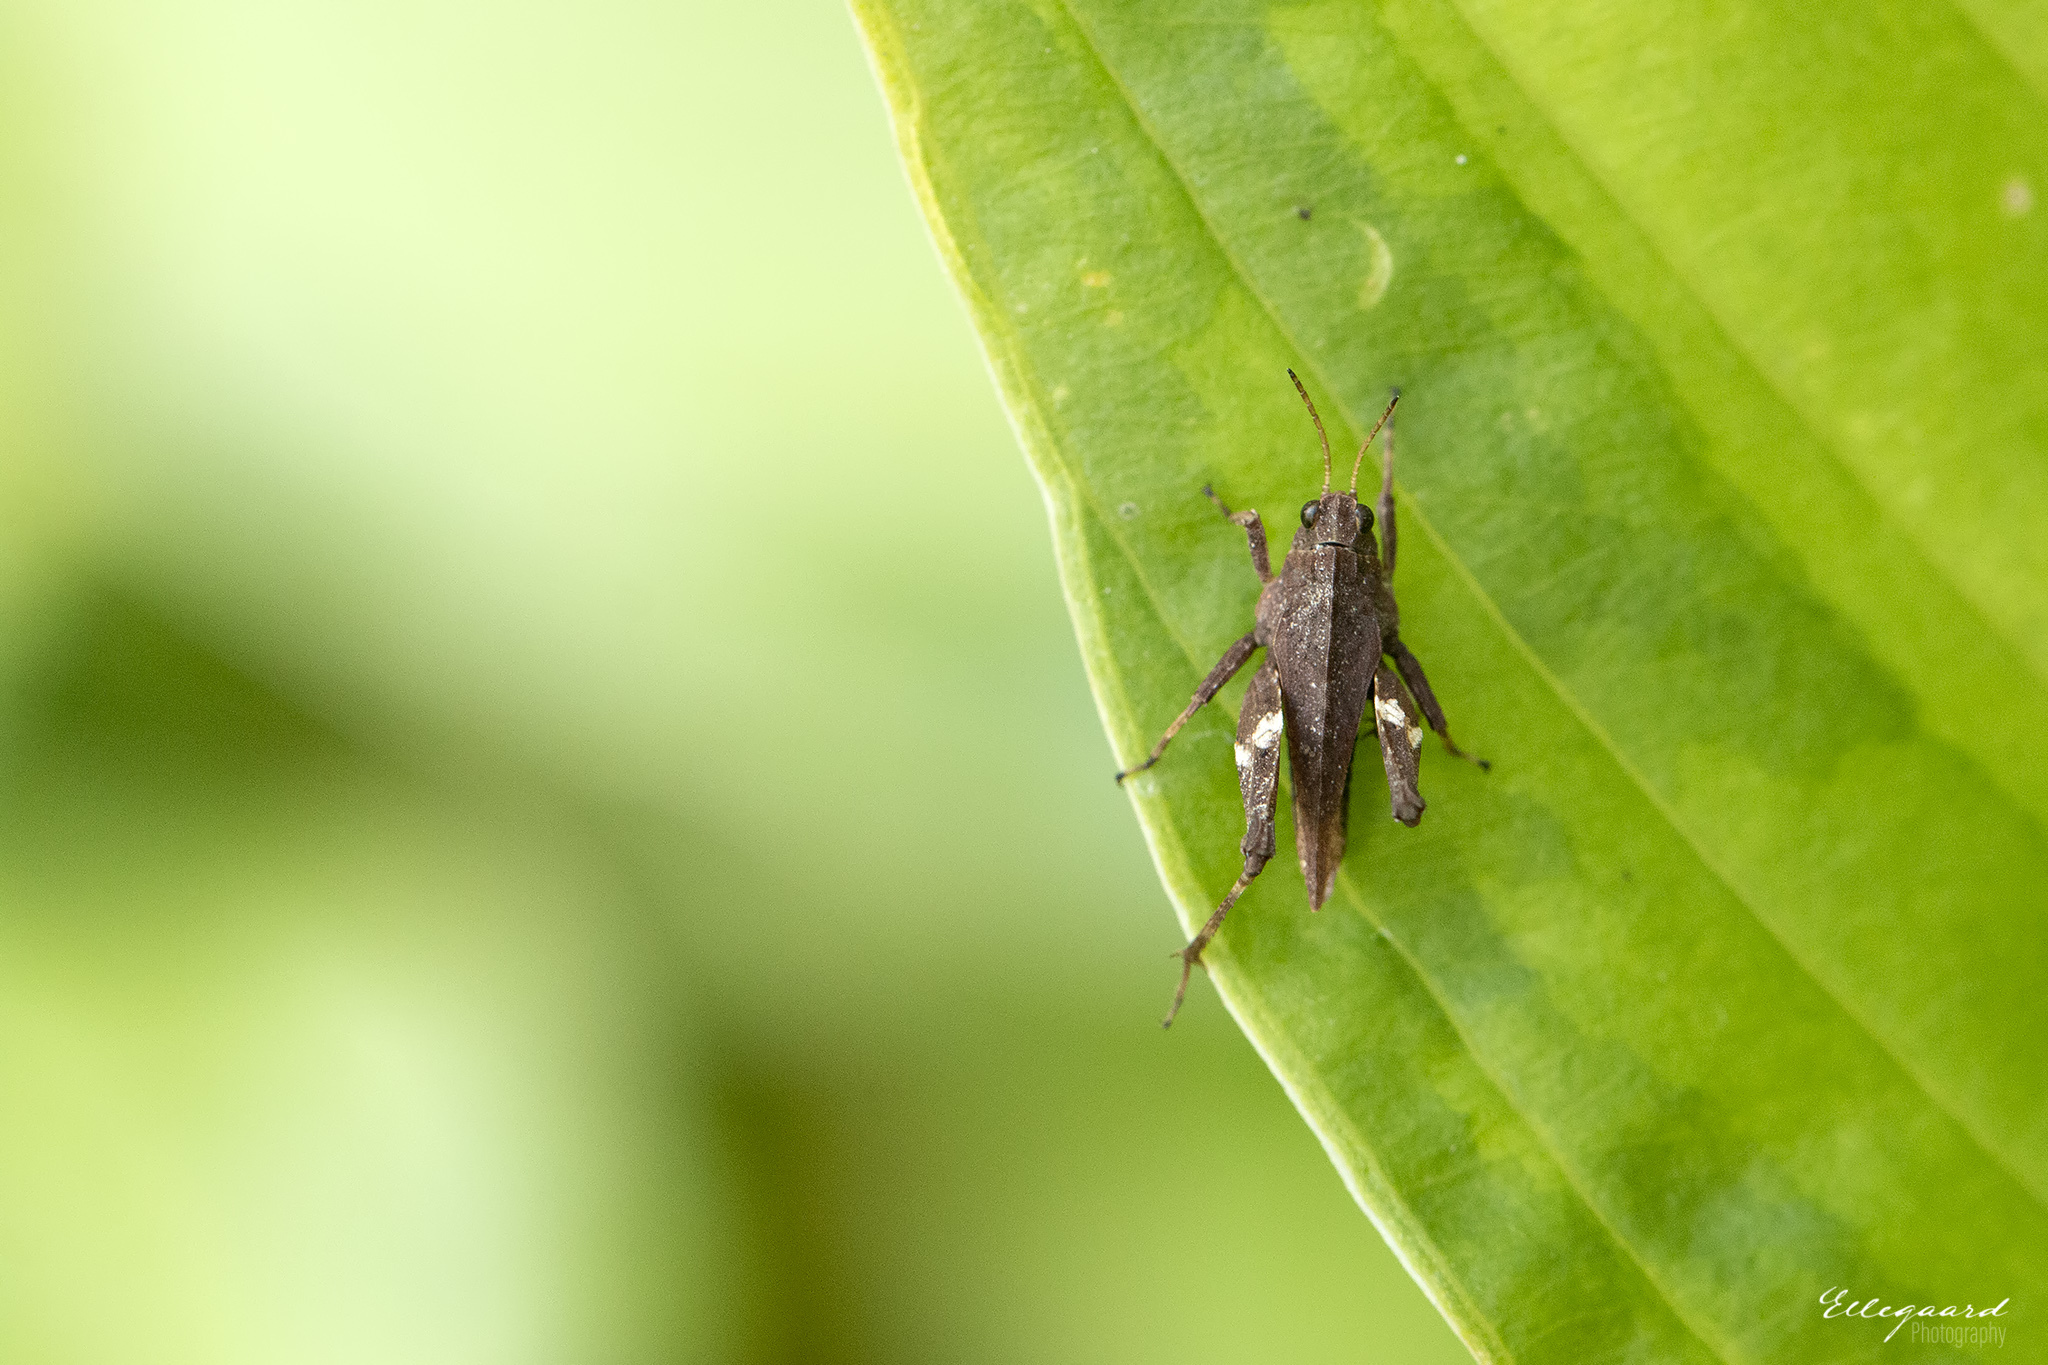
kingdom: Animalia
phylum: Arthropoda
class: Insecta
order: Orthoptera
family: Tetrigidae
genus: Tetrix
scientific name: Tetrix undulata
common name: Common groundhopper
